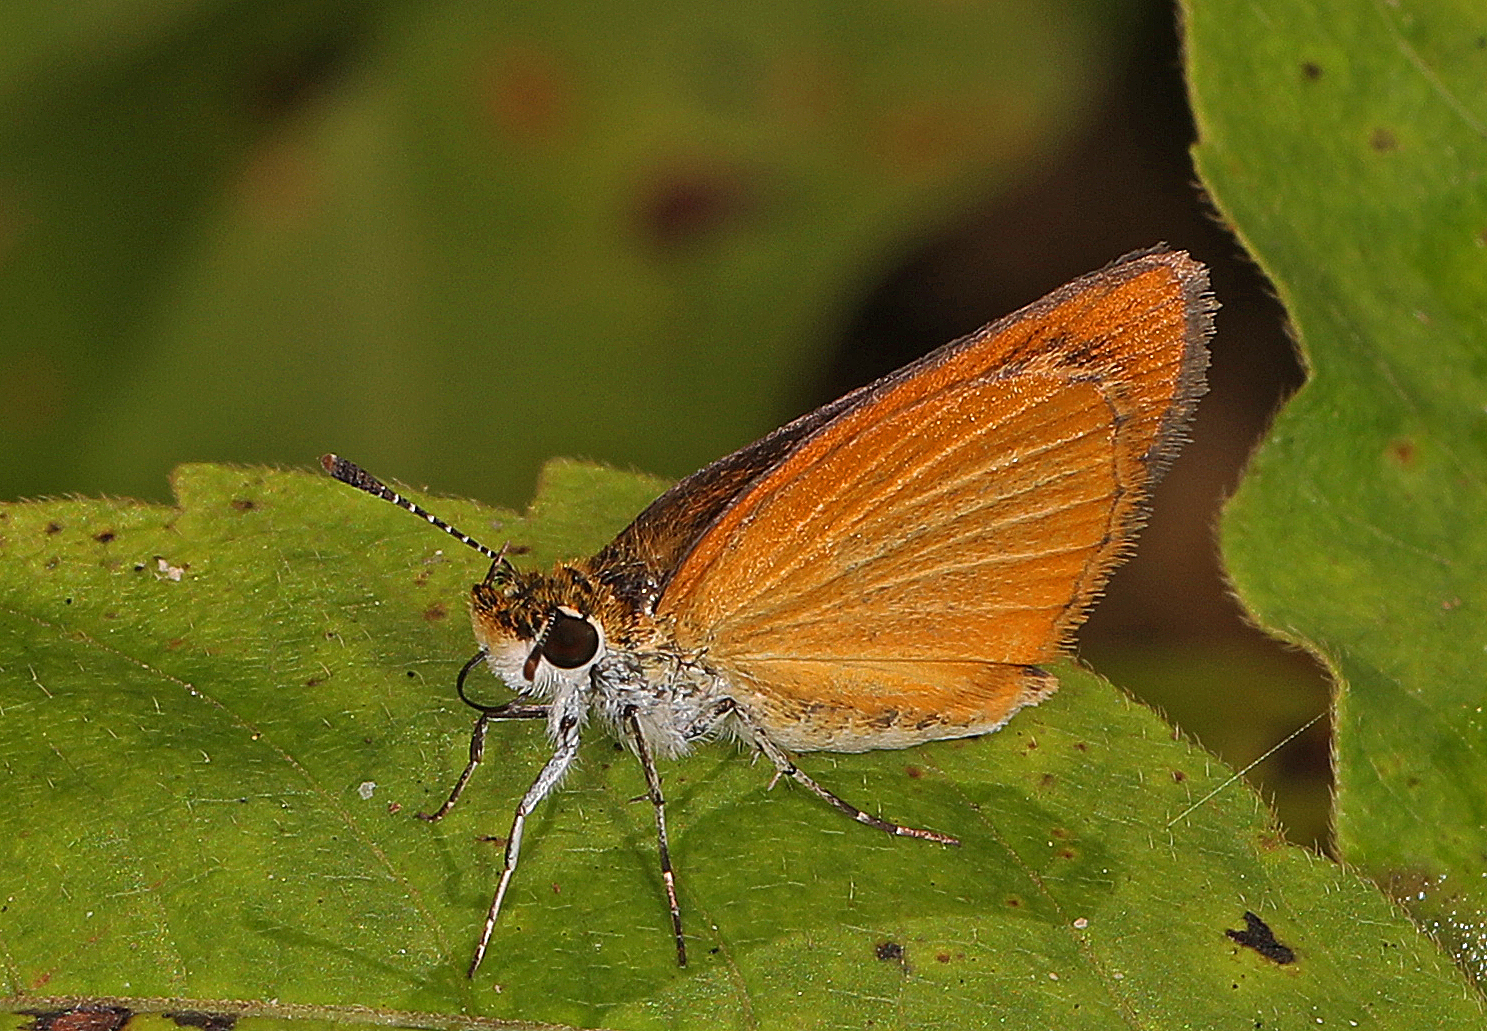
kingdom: Animalia
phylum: Arthropoda
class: Insecta
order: Lepidoptera
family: Hesperiidae
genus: Ancyloxypha
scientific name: Ancyloxypha numitor
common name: Least skipper
